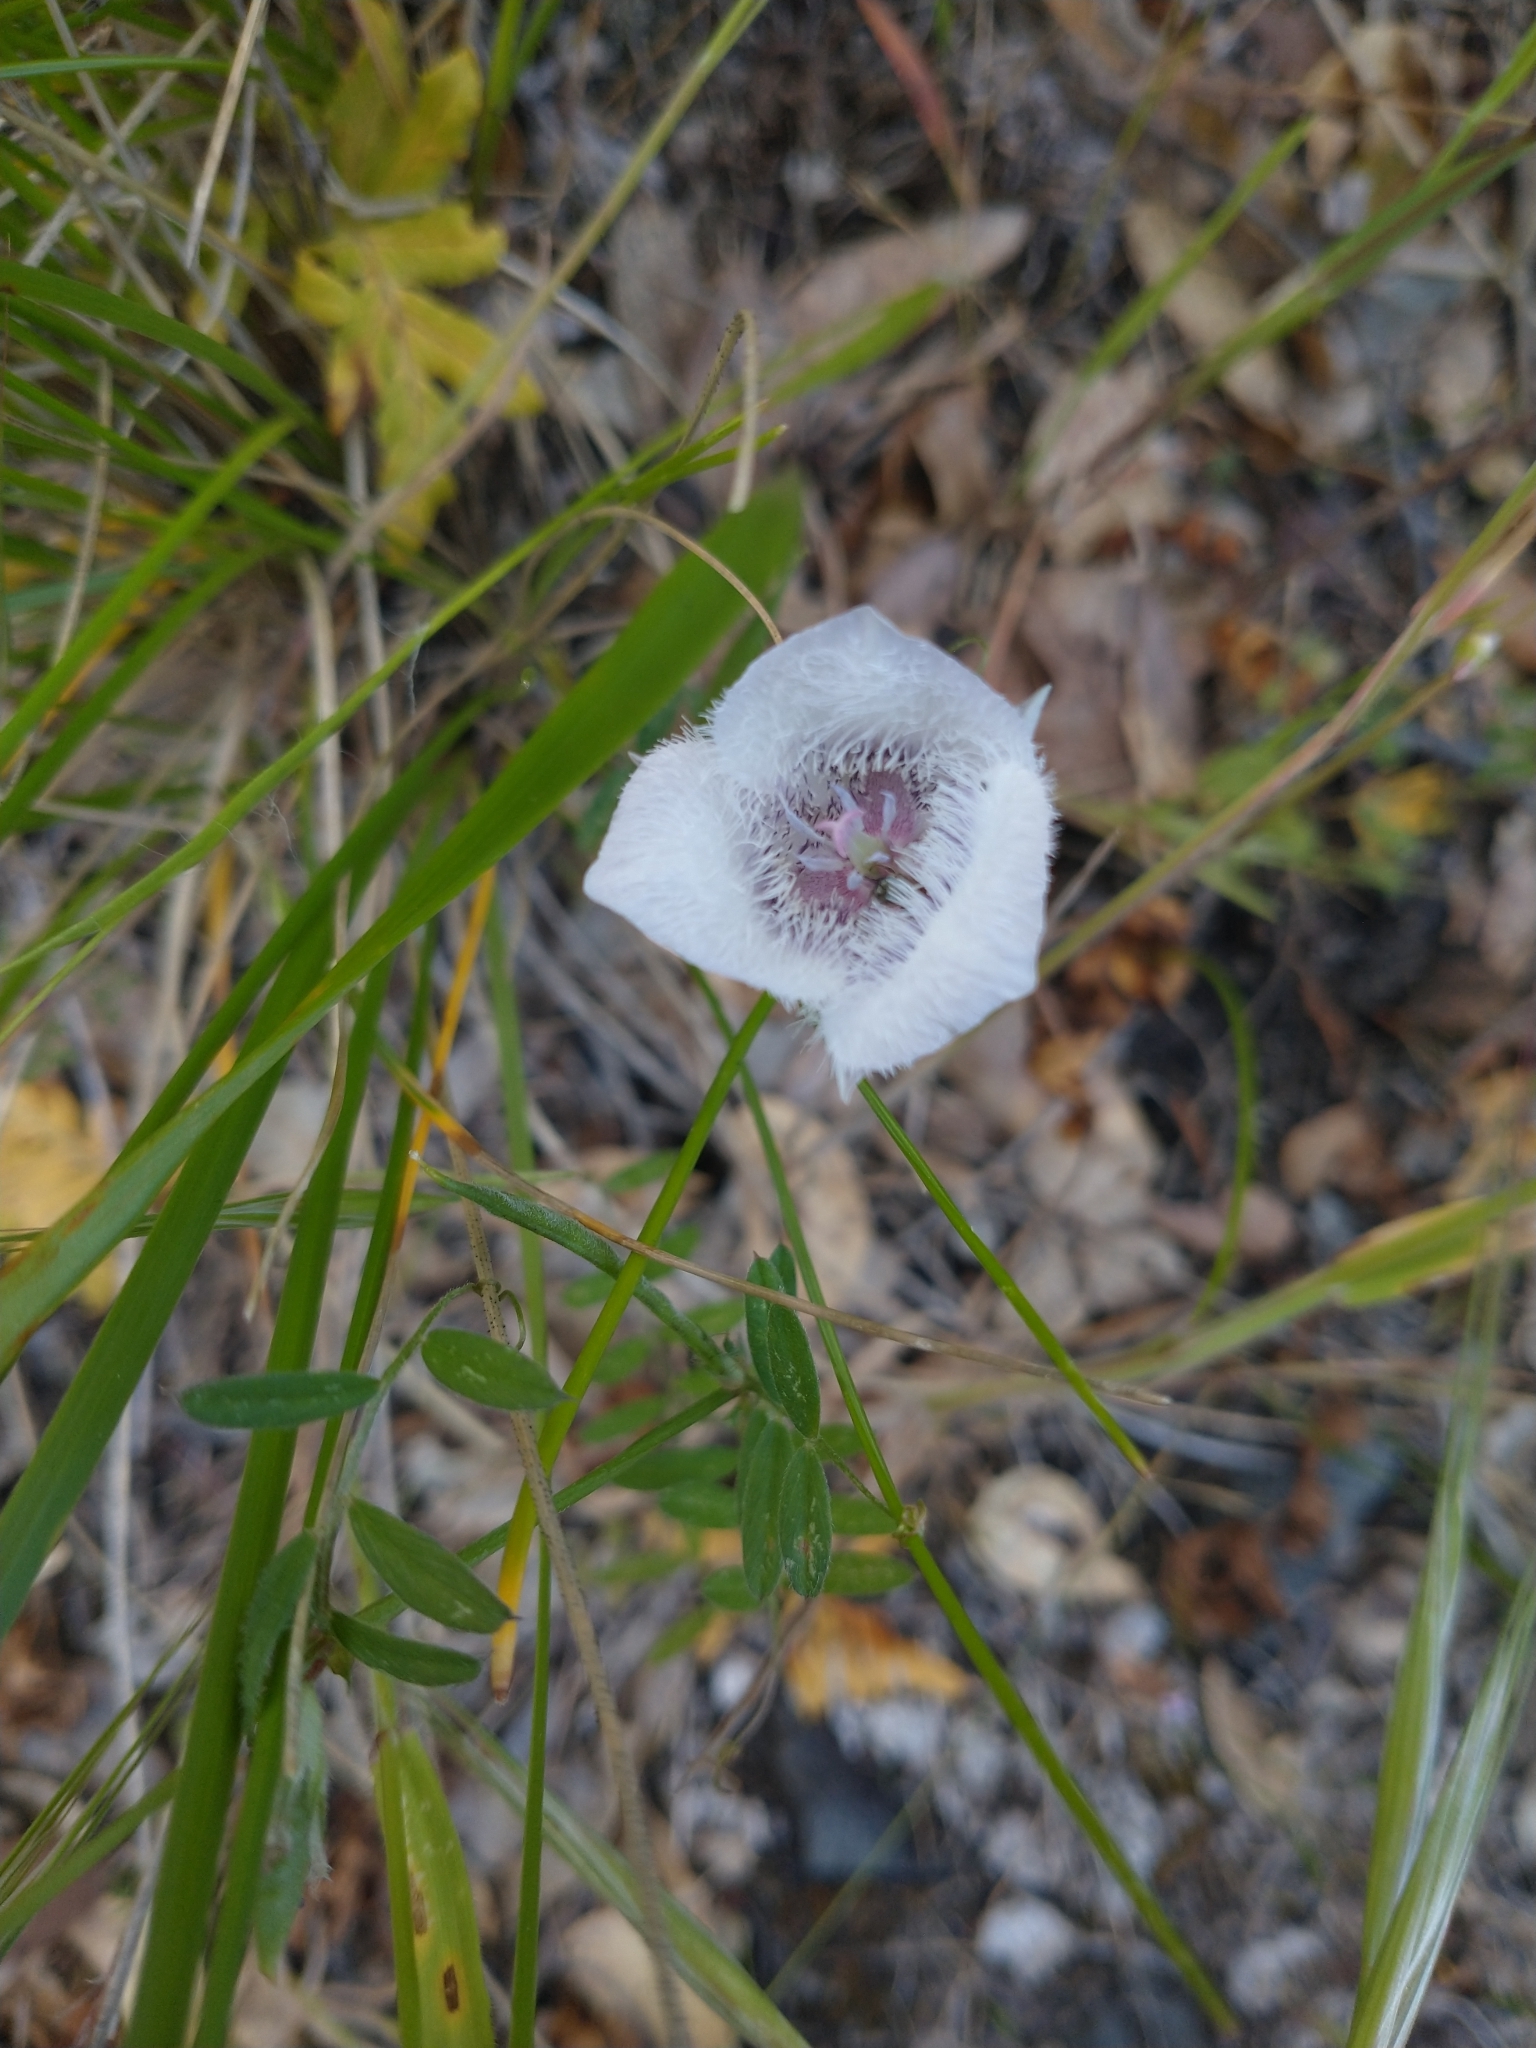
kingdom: Plantae
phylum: Tracheophyta
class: Liliopsida
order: Liliales
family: Liliaceae
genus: Calochortus
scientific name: Calochortus tolmiei
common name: Pussy-ears
